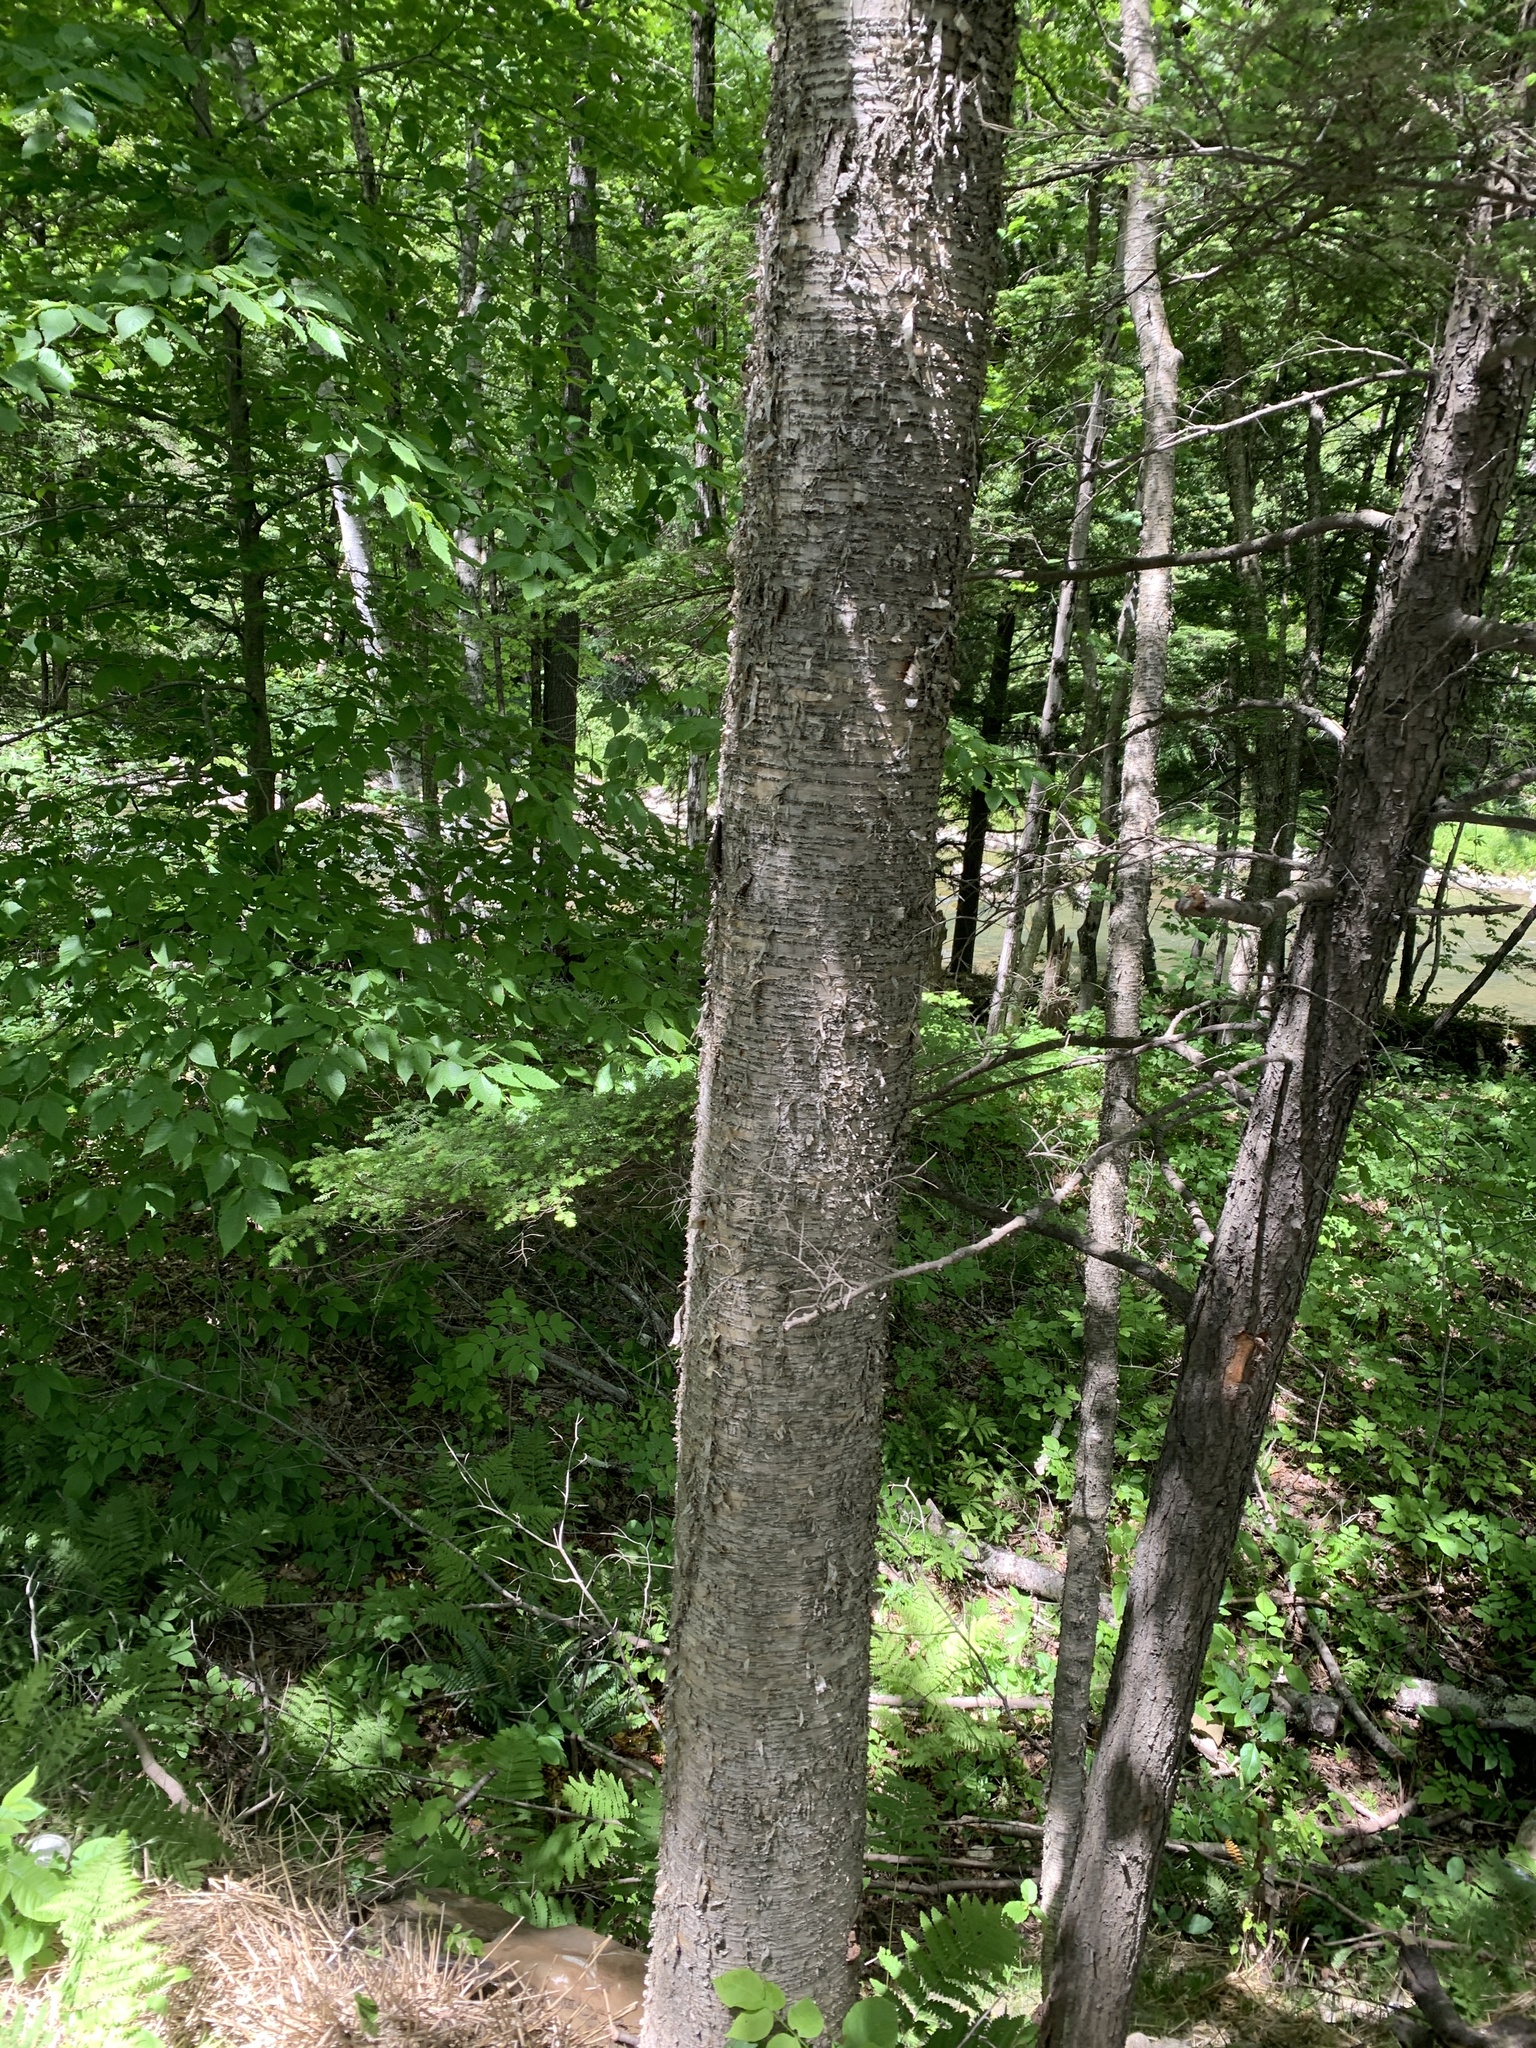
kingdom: Plantae
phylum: Tracheophyta
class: Magnoliopsida
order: Fagales
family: Betulaceae
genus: Betula
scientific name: Betula alleghaniensis
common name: Yellow birch
